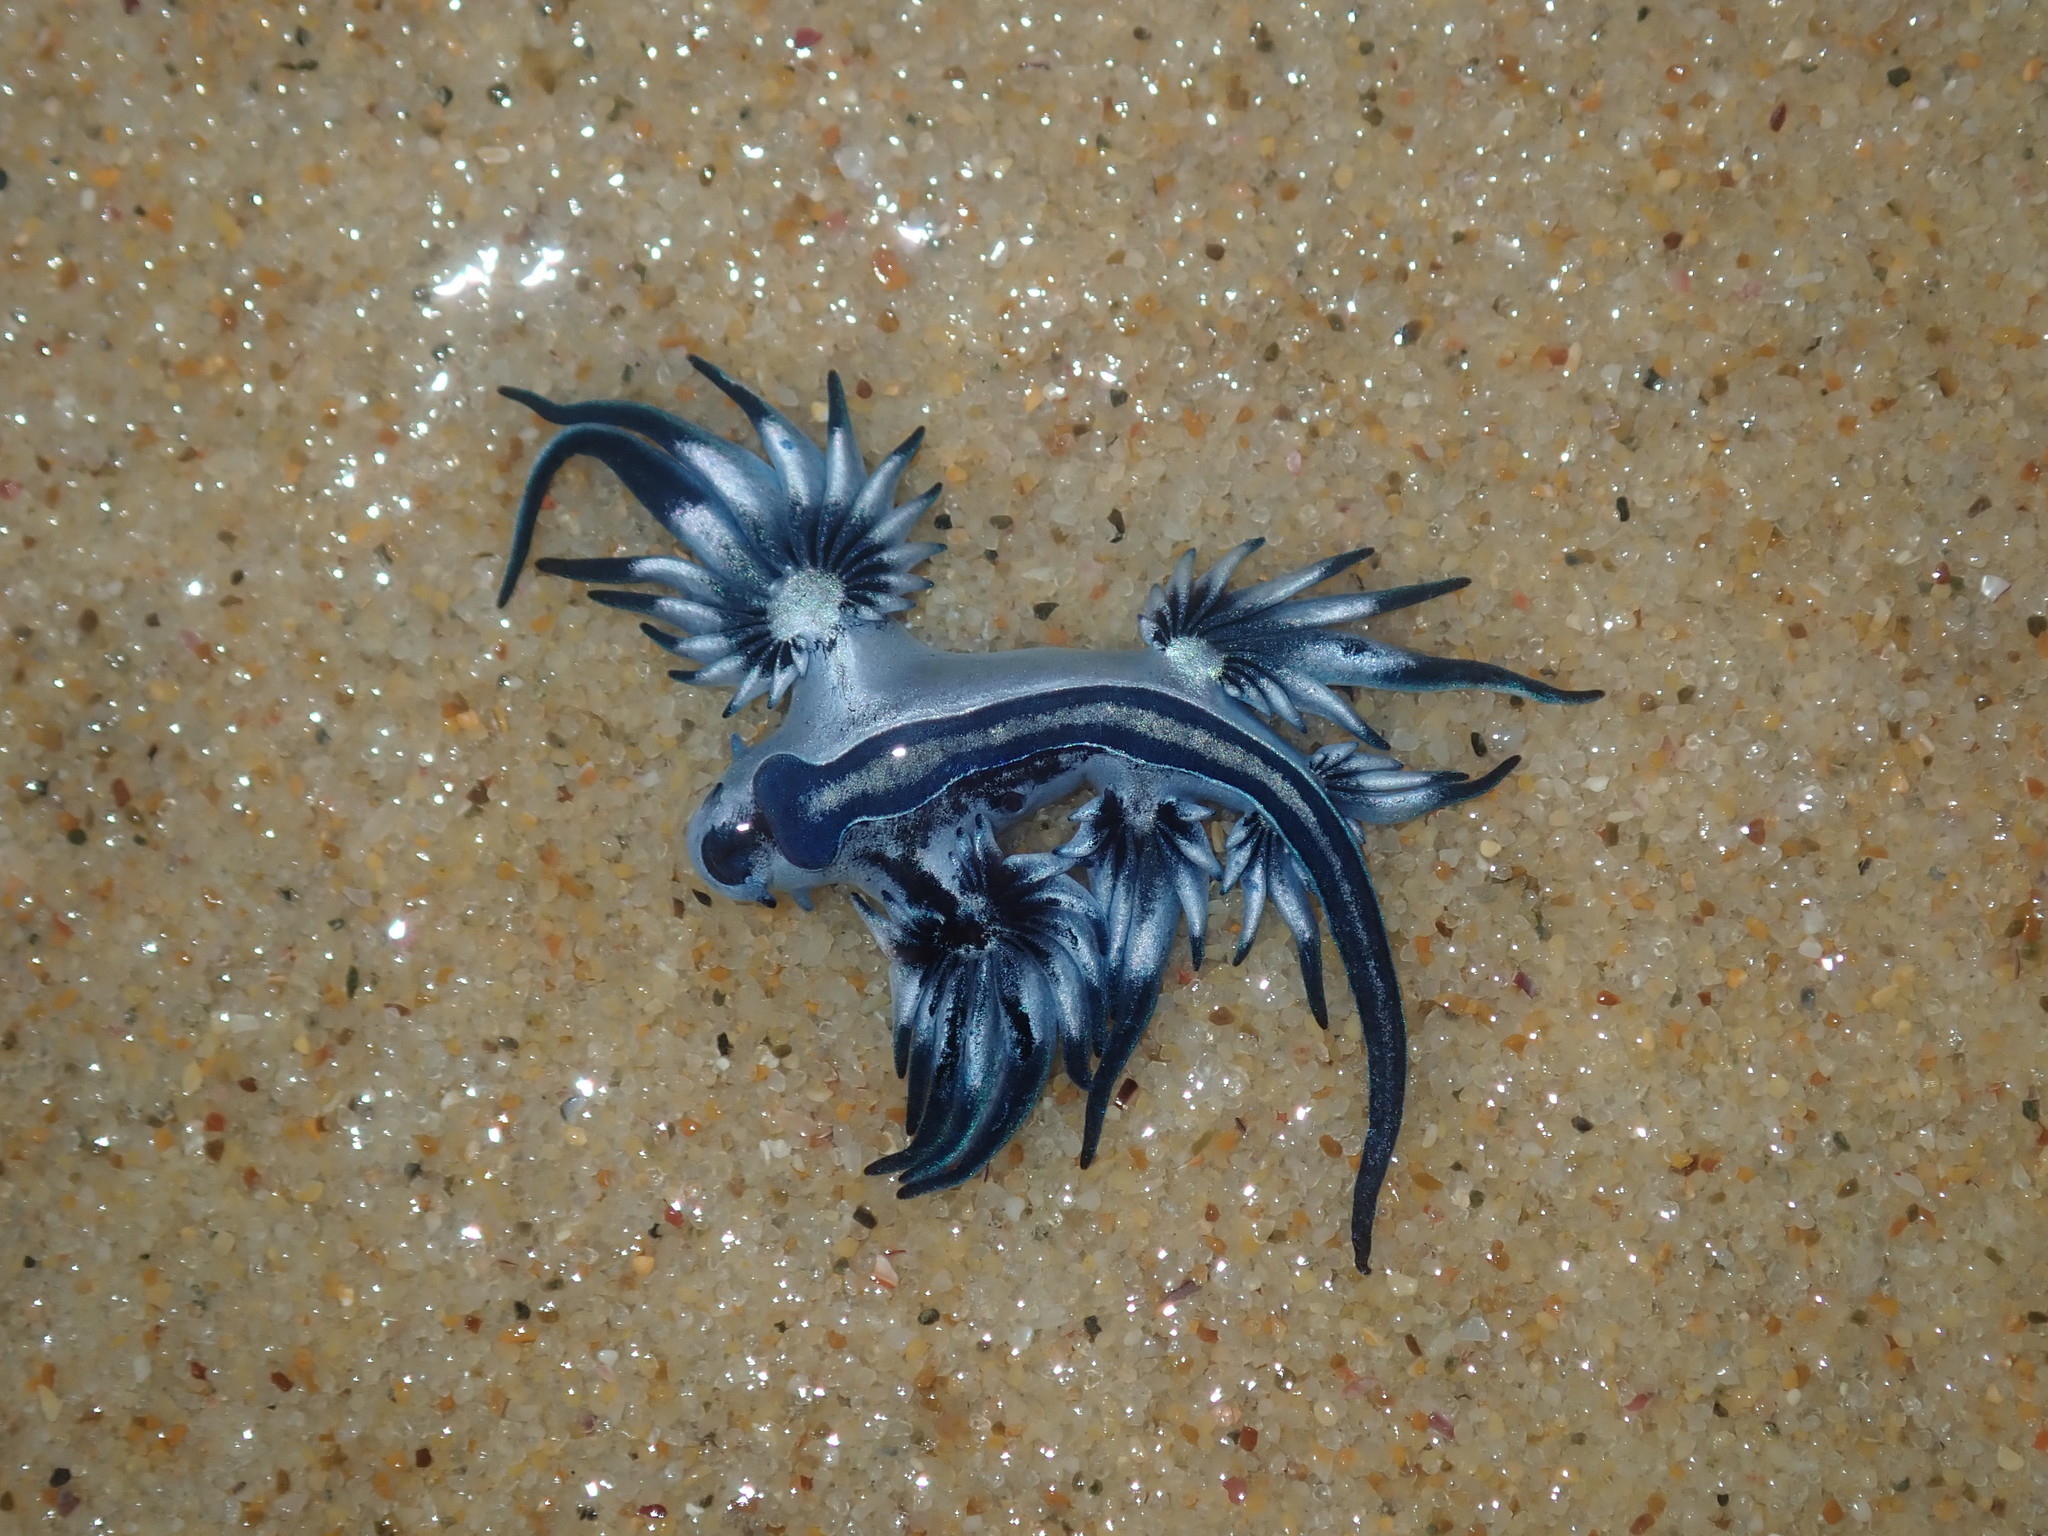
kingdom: Animalia
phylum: Mollusca
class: Gastropoda
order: Nudibranchia
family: Glaucidae
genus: Glaucus
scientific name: Glaucus atlanticus
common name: Purple ocean slug
